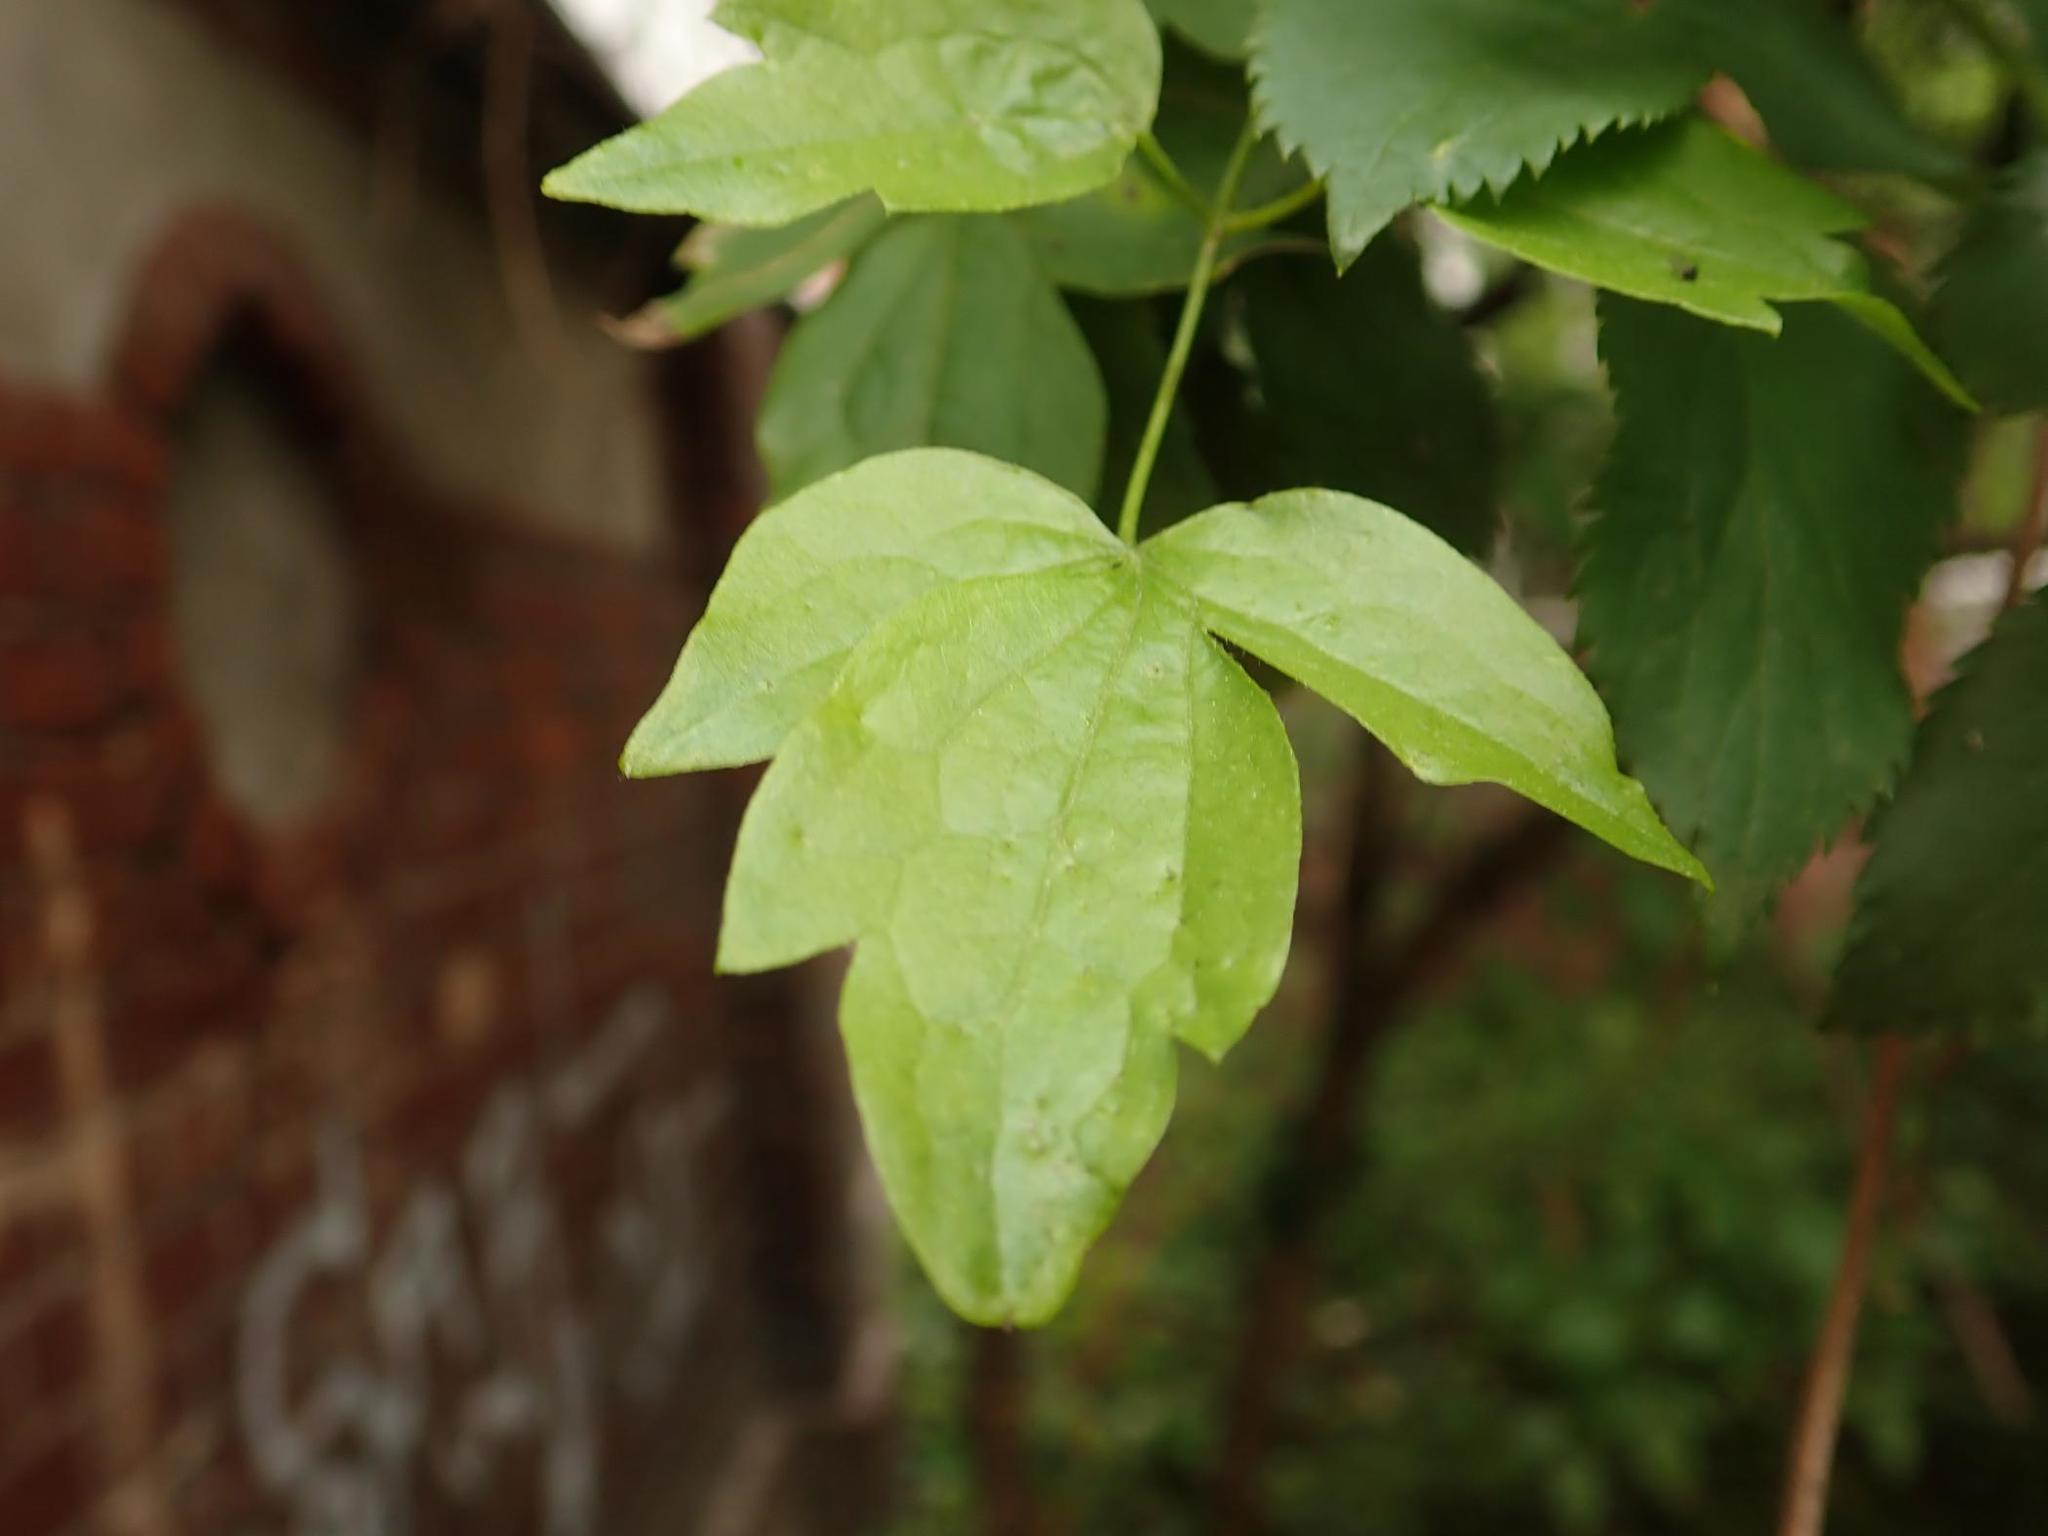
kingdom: Plantae
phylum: Tracheophyta
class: Magnoliopsida
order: Ranunculales
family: Ranunculaceae
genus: Clematis
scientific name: Clematis vitalba
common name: Evergreen clematis
